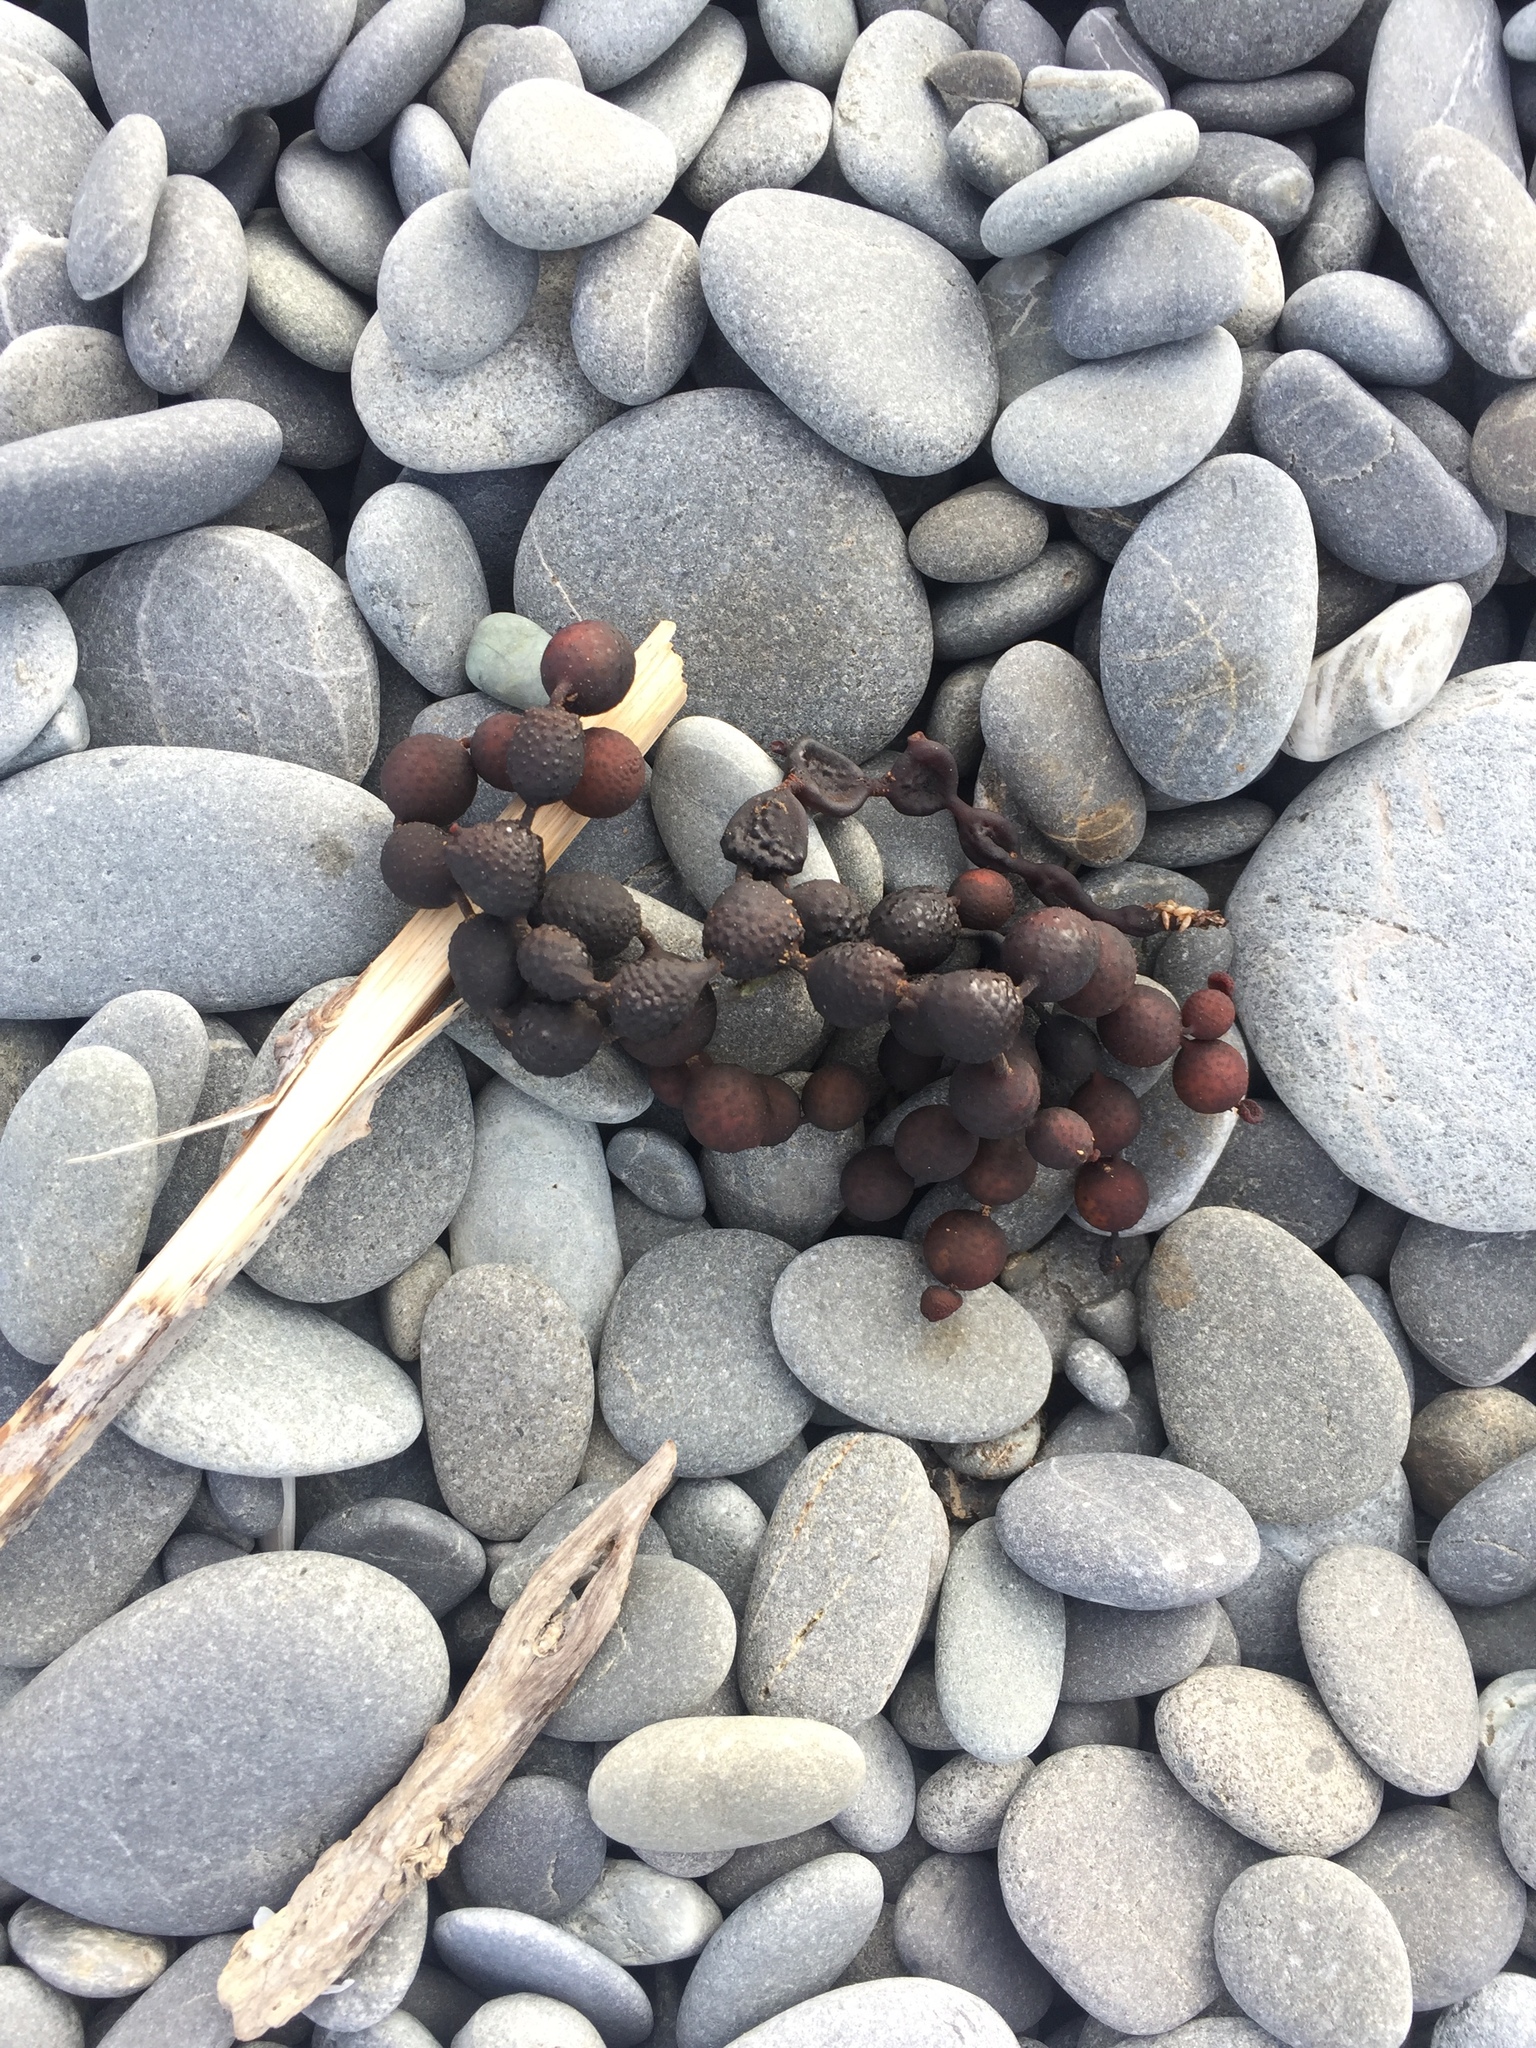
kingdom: Chromista
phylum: Ochrophyta
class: Phaeophyceae
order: Fucales
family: Hormosiraceae
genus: Hormosira
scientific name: Hormosira banksii
